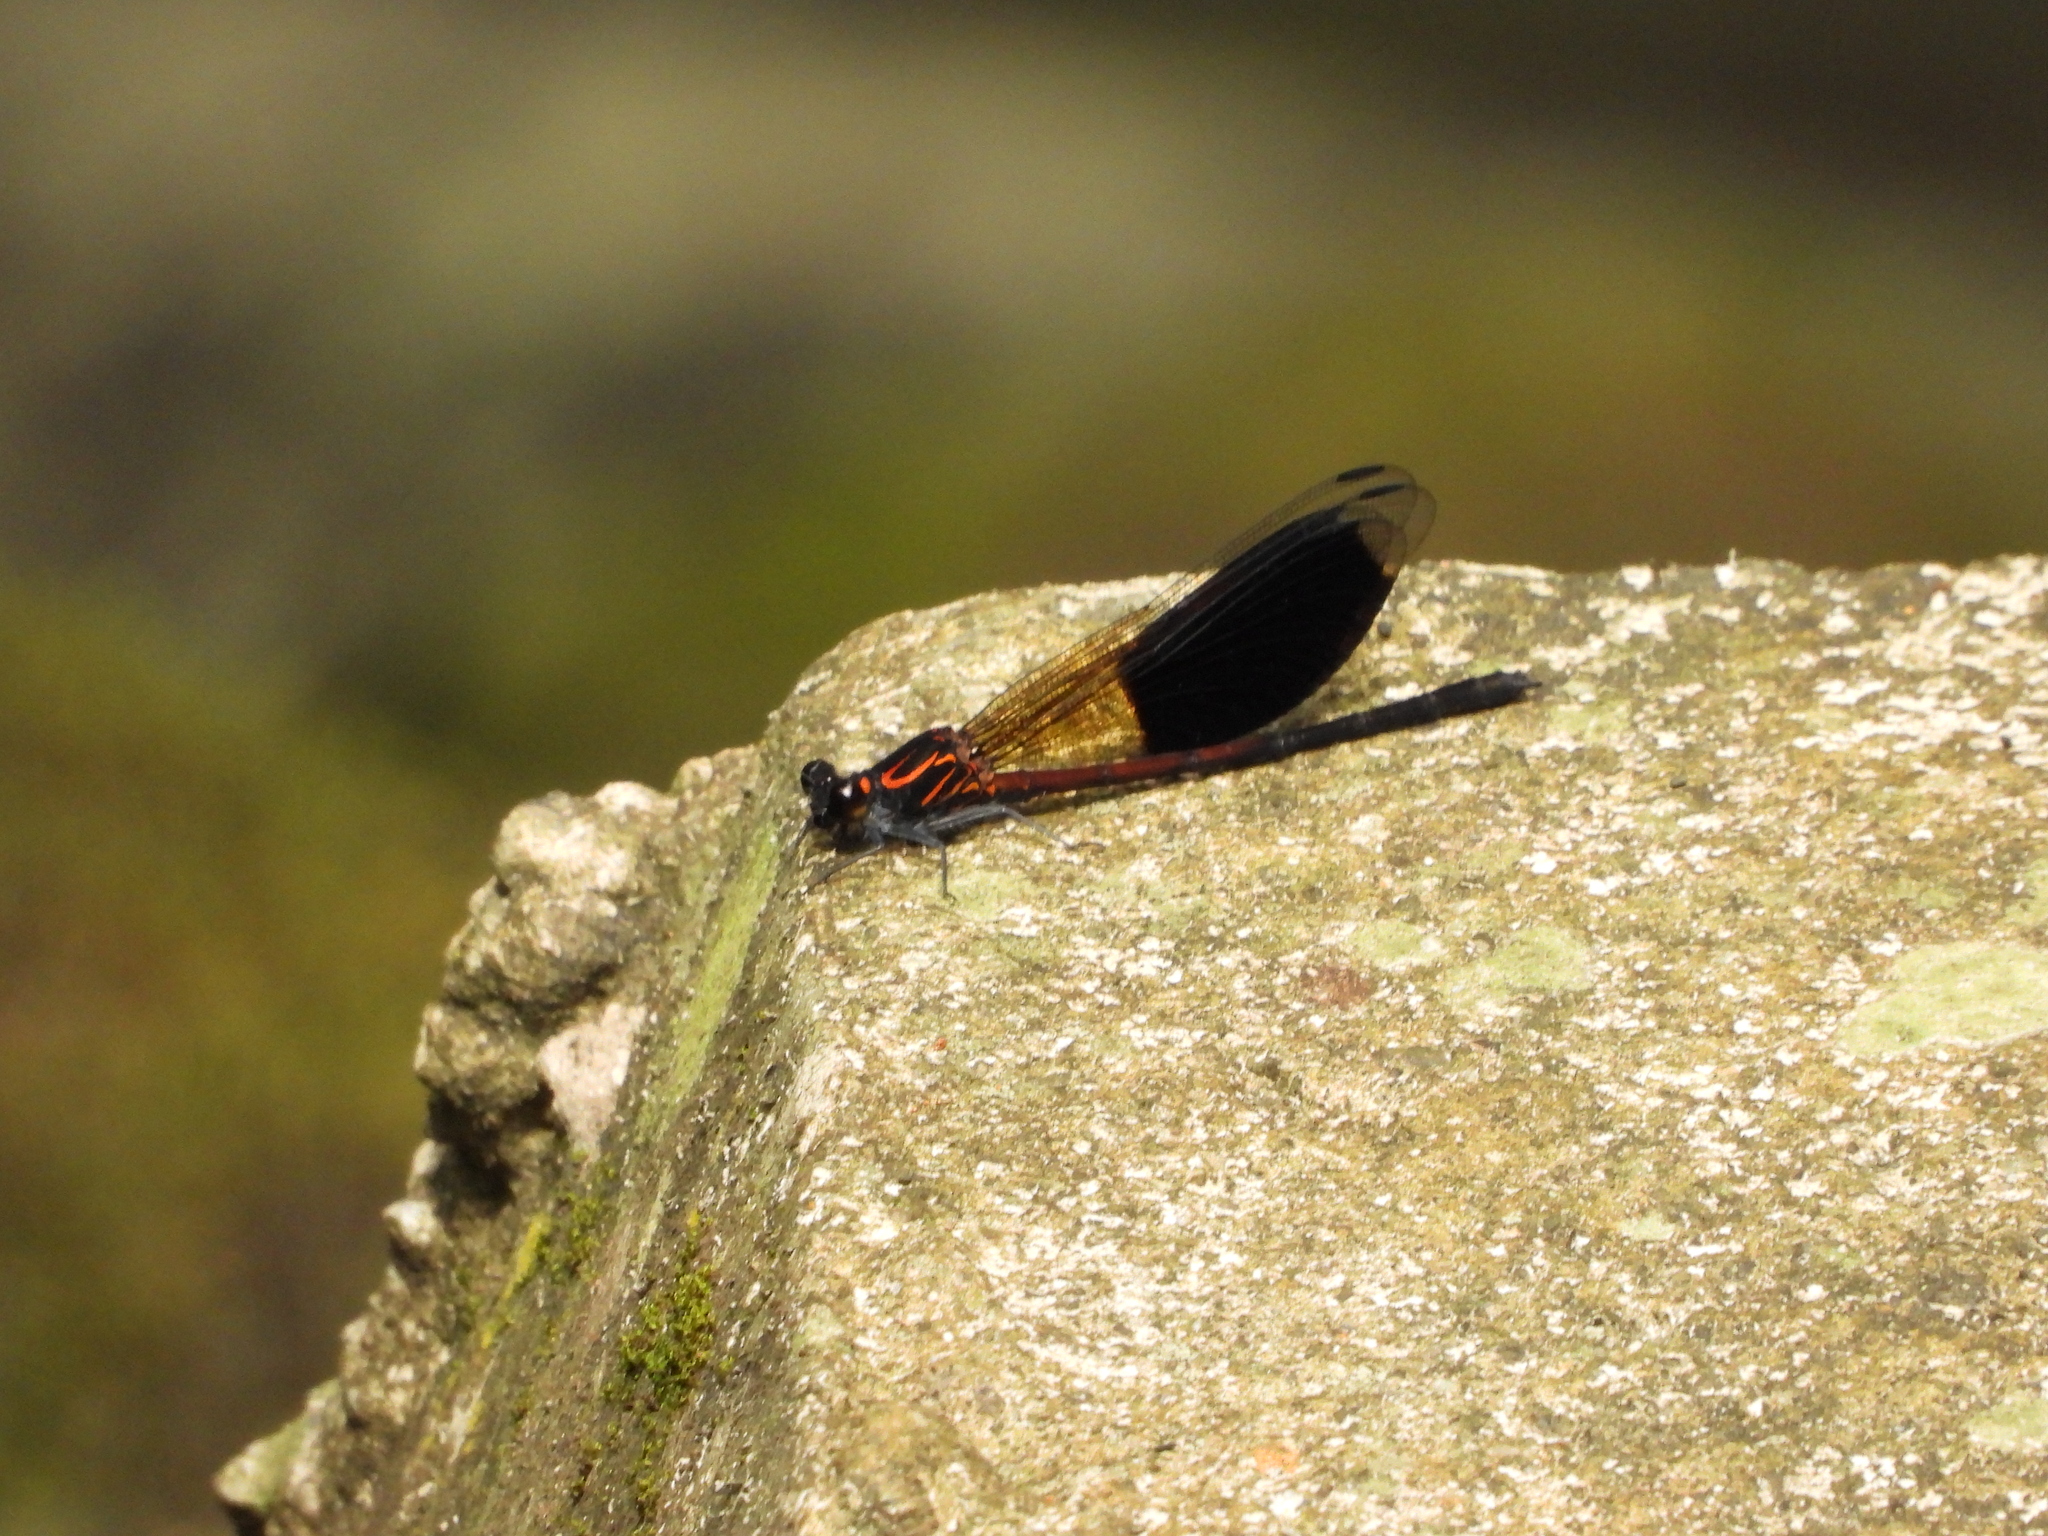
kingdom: Animalia
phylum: Arthropoda
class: Insecta
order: Odonata
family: Euphaeidae
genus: Euphaea
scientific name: Euphaea formosa
